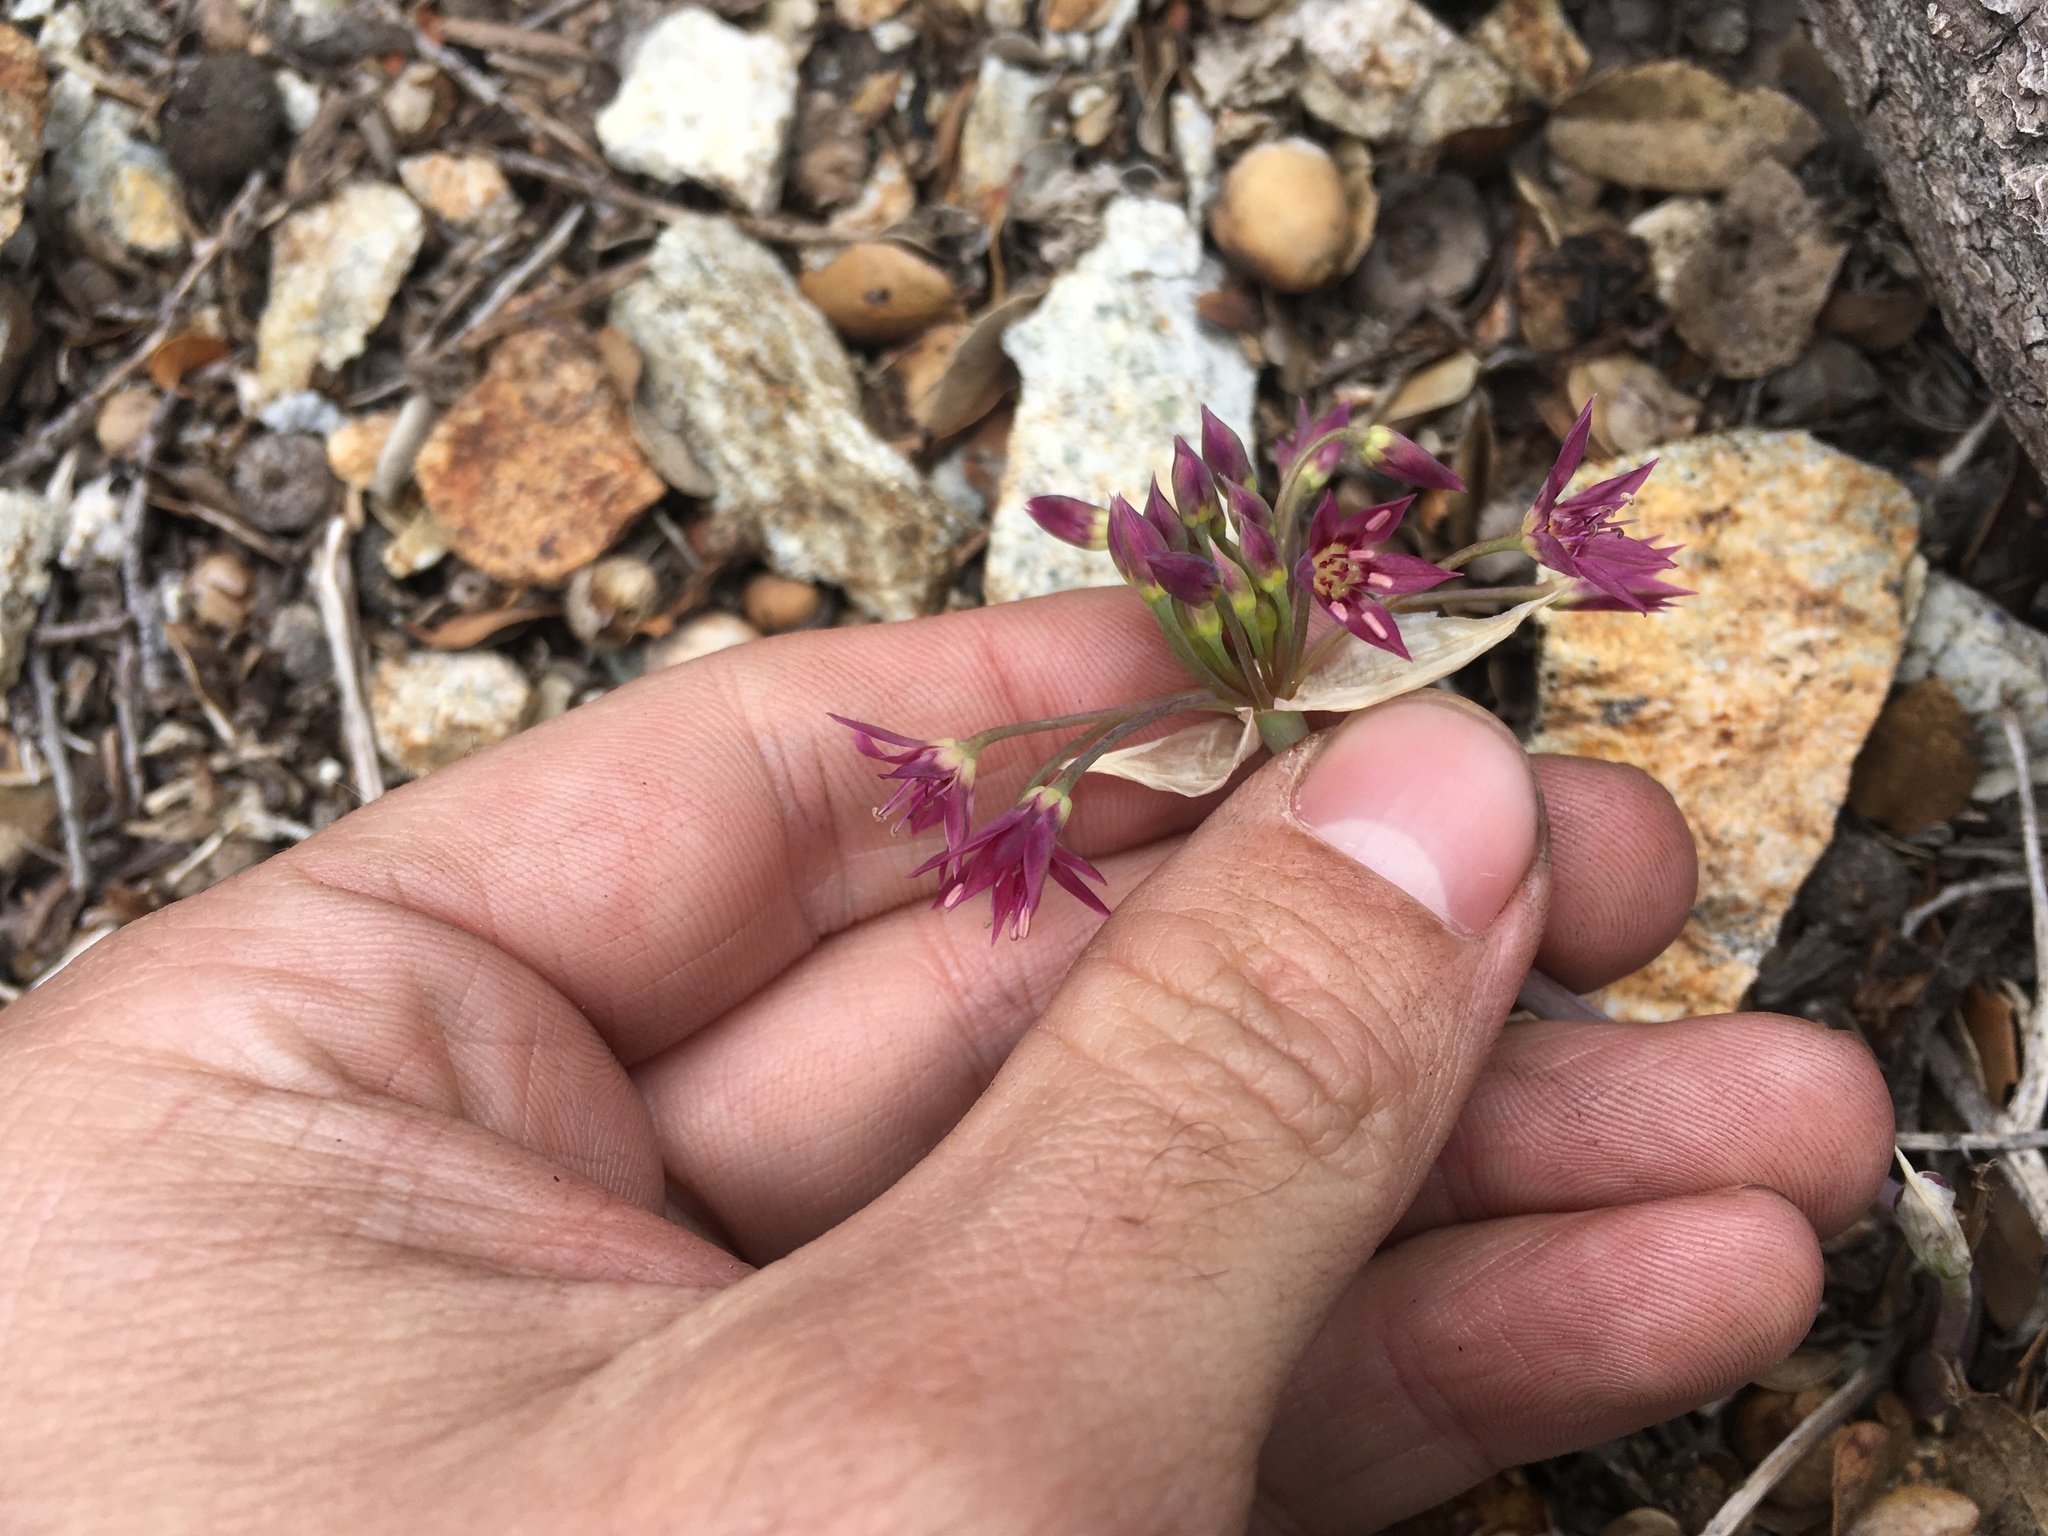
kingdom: Plantae
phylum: Tracheophyta
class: Liliopsida
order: Asparagales
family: Amaryllidaceae
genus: Allium
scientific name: Allium campanulatum
